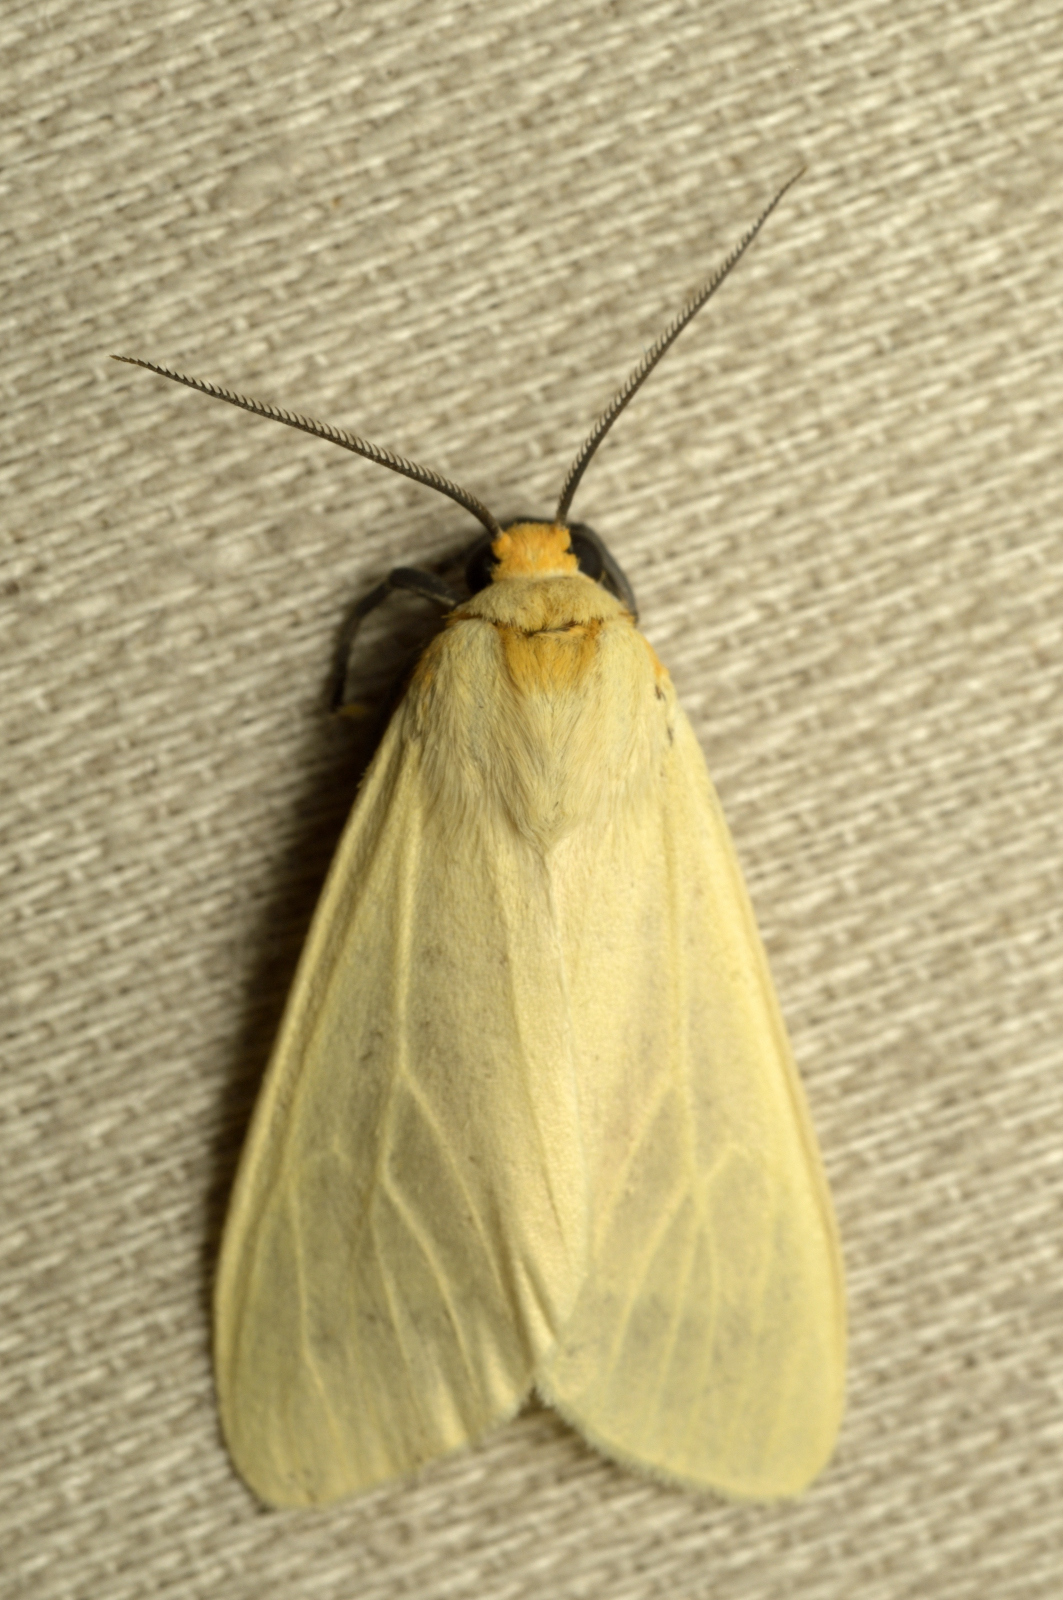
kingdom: Animalia
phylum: Arthropoda
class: Insecta
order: Lepidoptera
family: Erebidae
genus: Pareuchaetes
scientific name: Pareuchaetes pseudoinsulata
